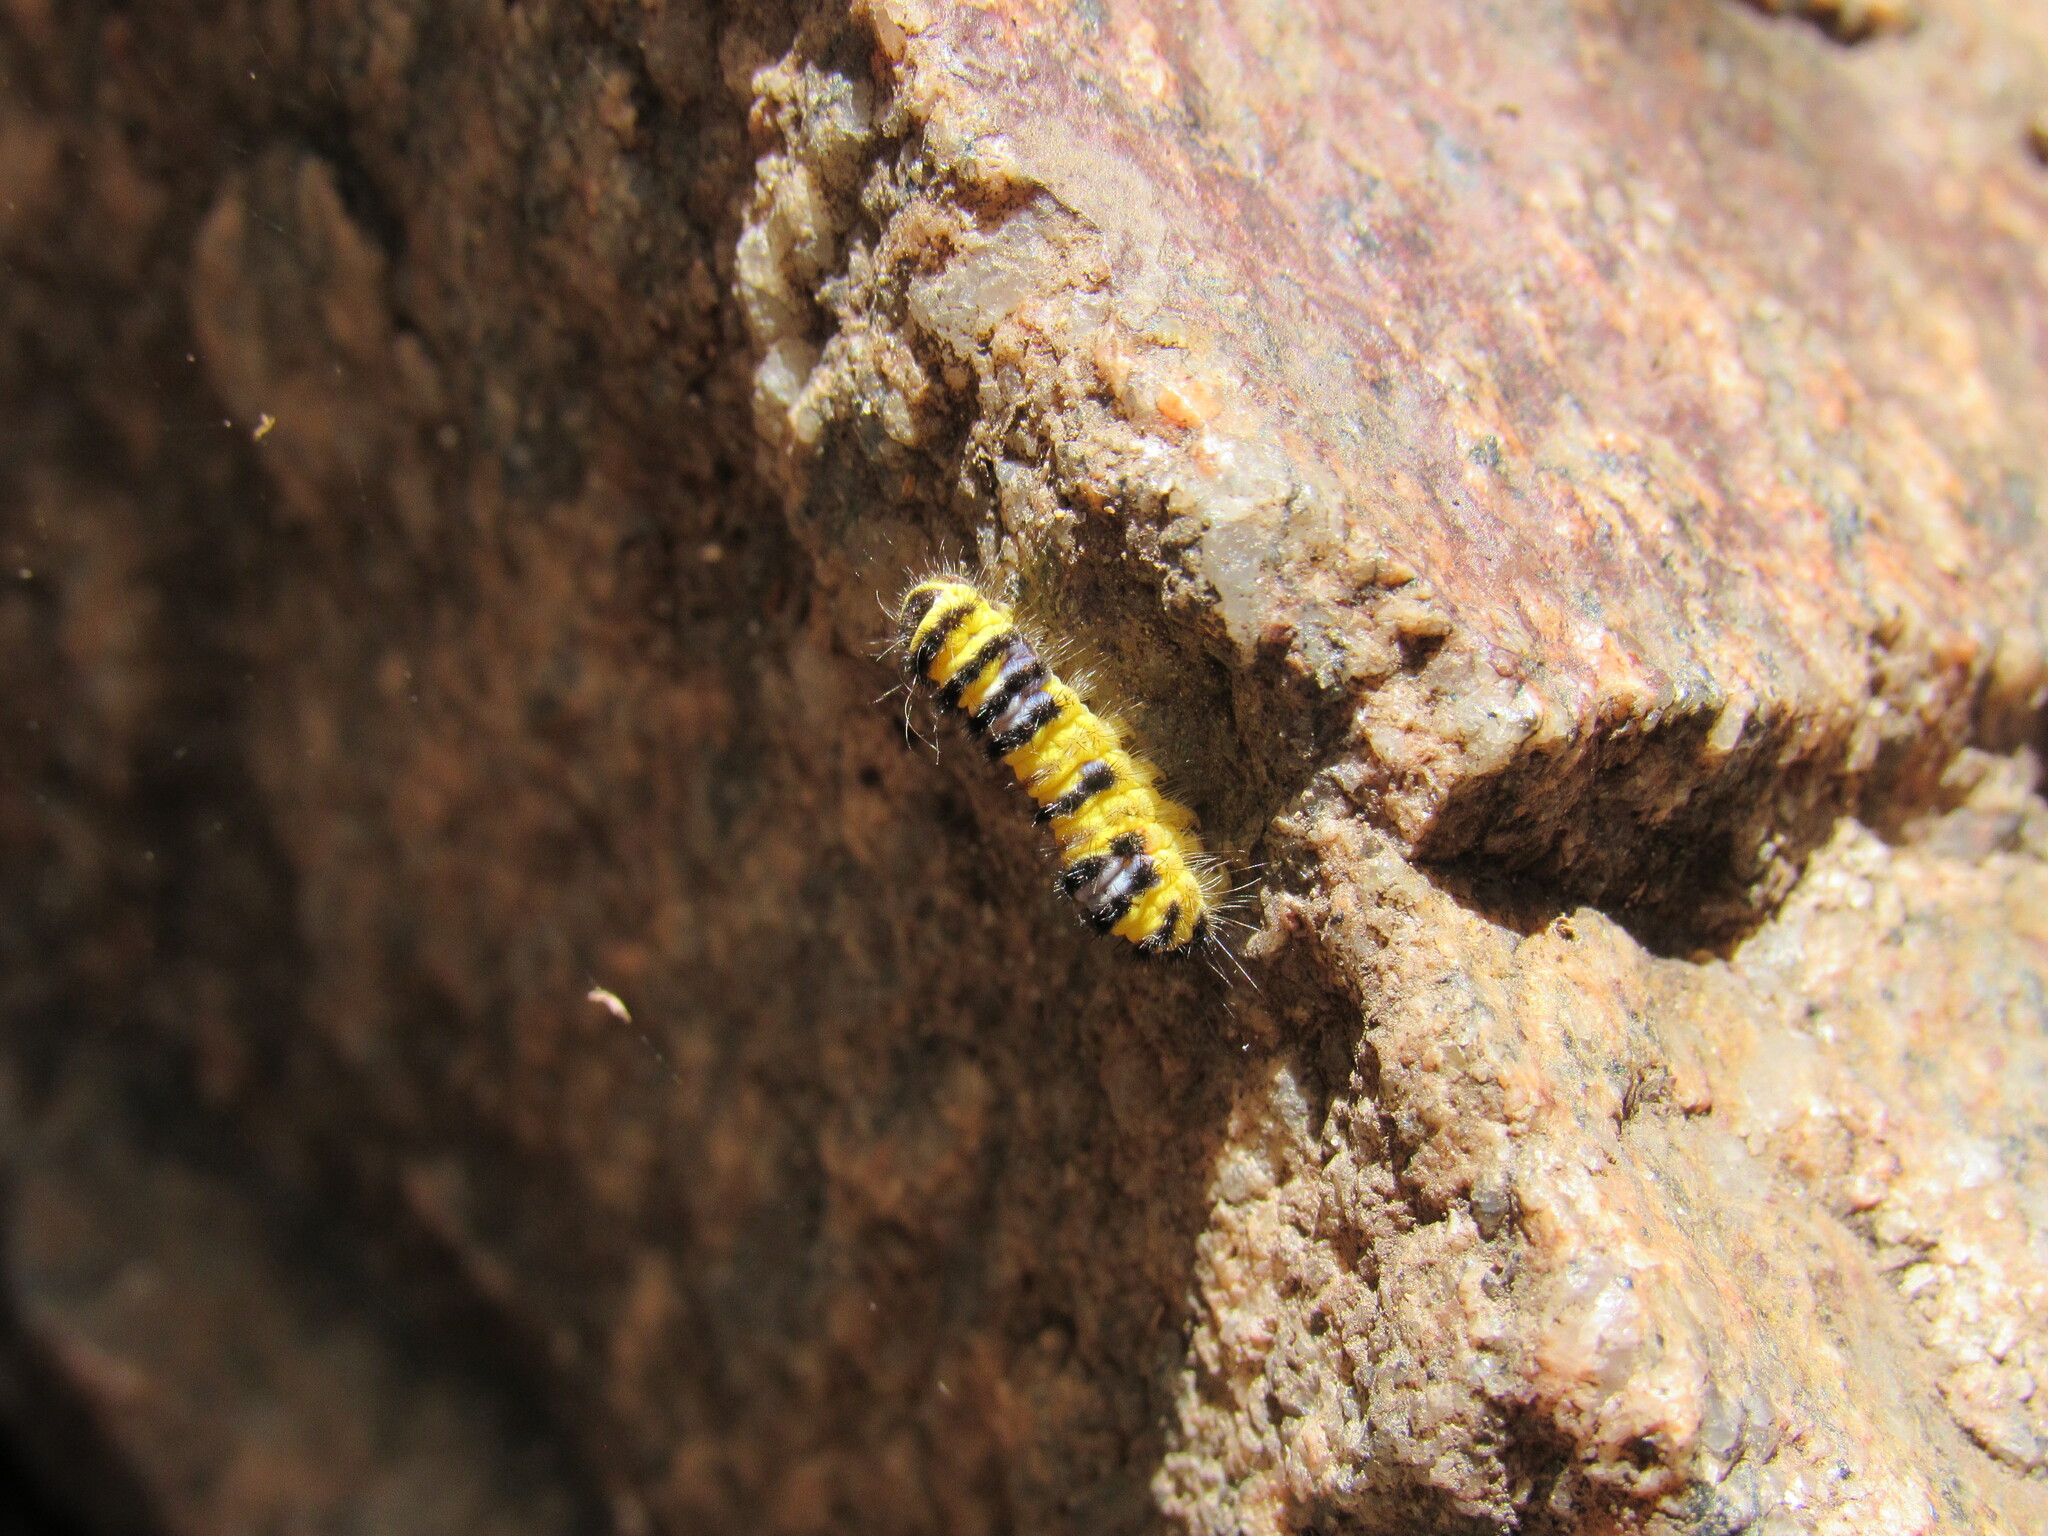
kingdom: Animalia
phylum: Arthropoda
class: Insecta
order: Lepidoptera
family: Zygaenidae
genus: Harrisina
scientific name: Harrisina metallica
